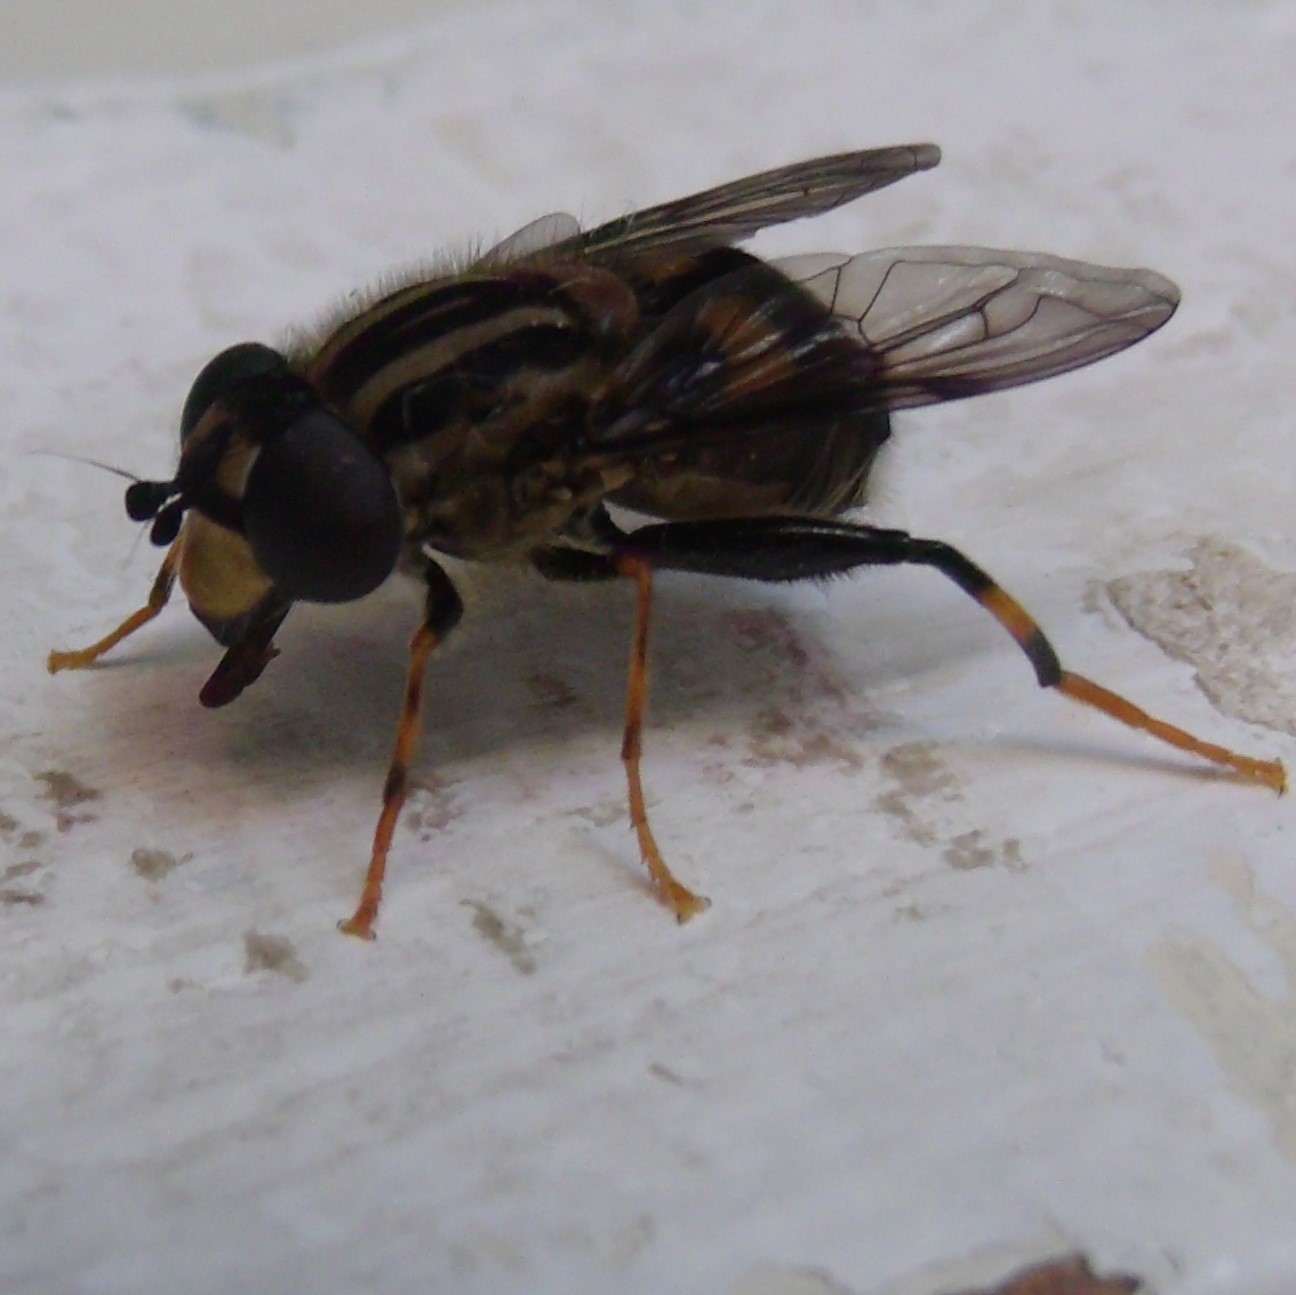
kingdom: Animalia
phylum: Arthropoda
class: Insecta
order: Diptera
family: Syrphidae
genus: Helophilus
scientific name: Helophilus antipodus
